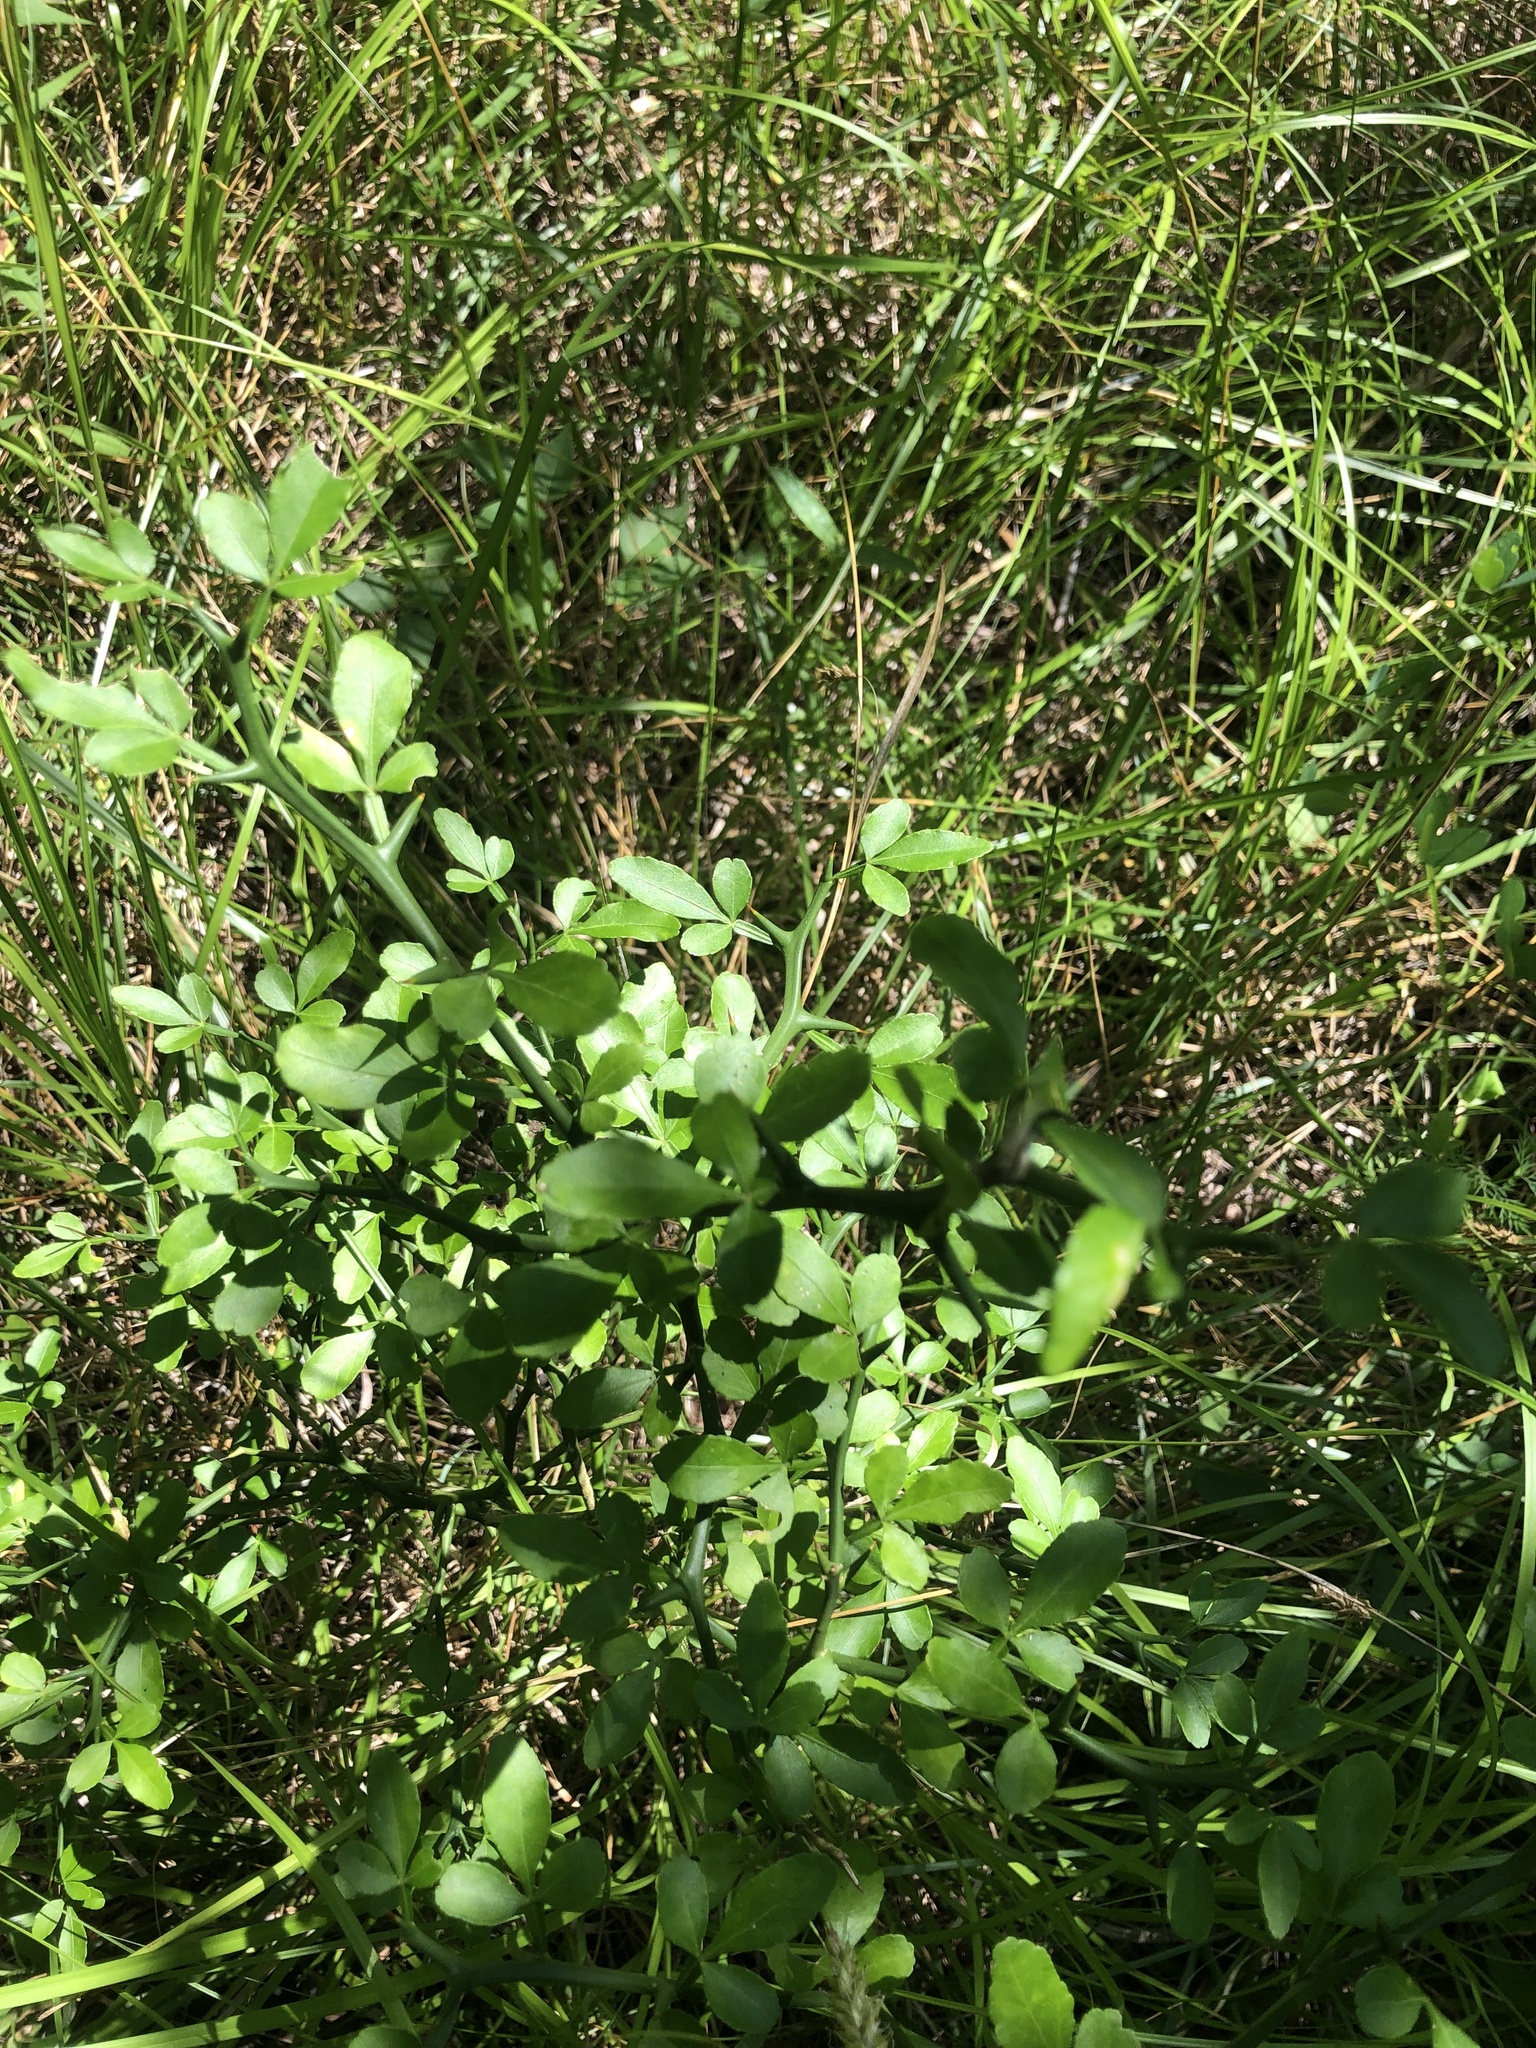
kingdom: Plantae
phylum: Tracheophyta
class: Magnoliopsida
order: Sapindales
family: Rutaceae
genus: Citrus
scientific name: Citrus trifoliata
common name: Japanese bitter-orange
